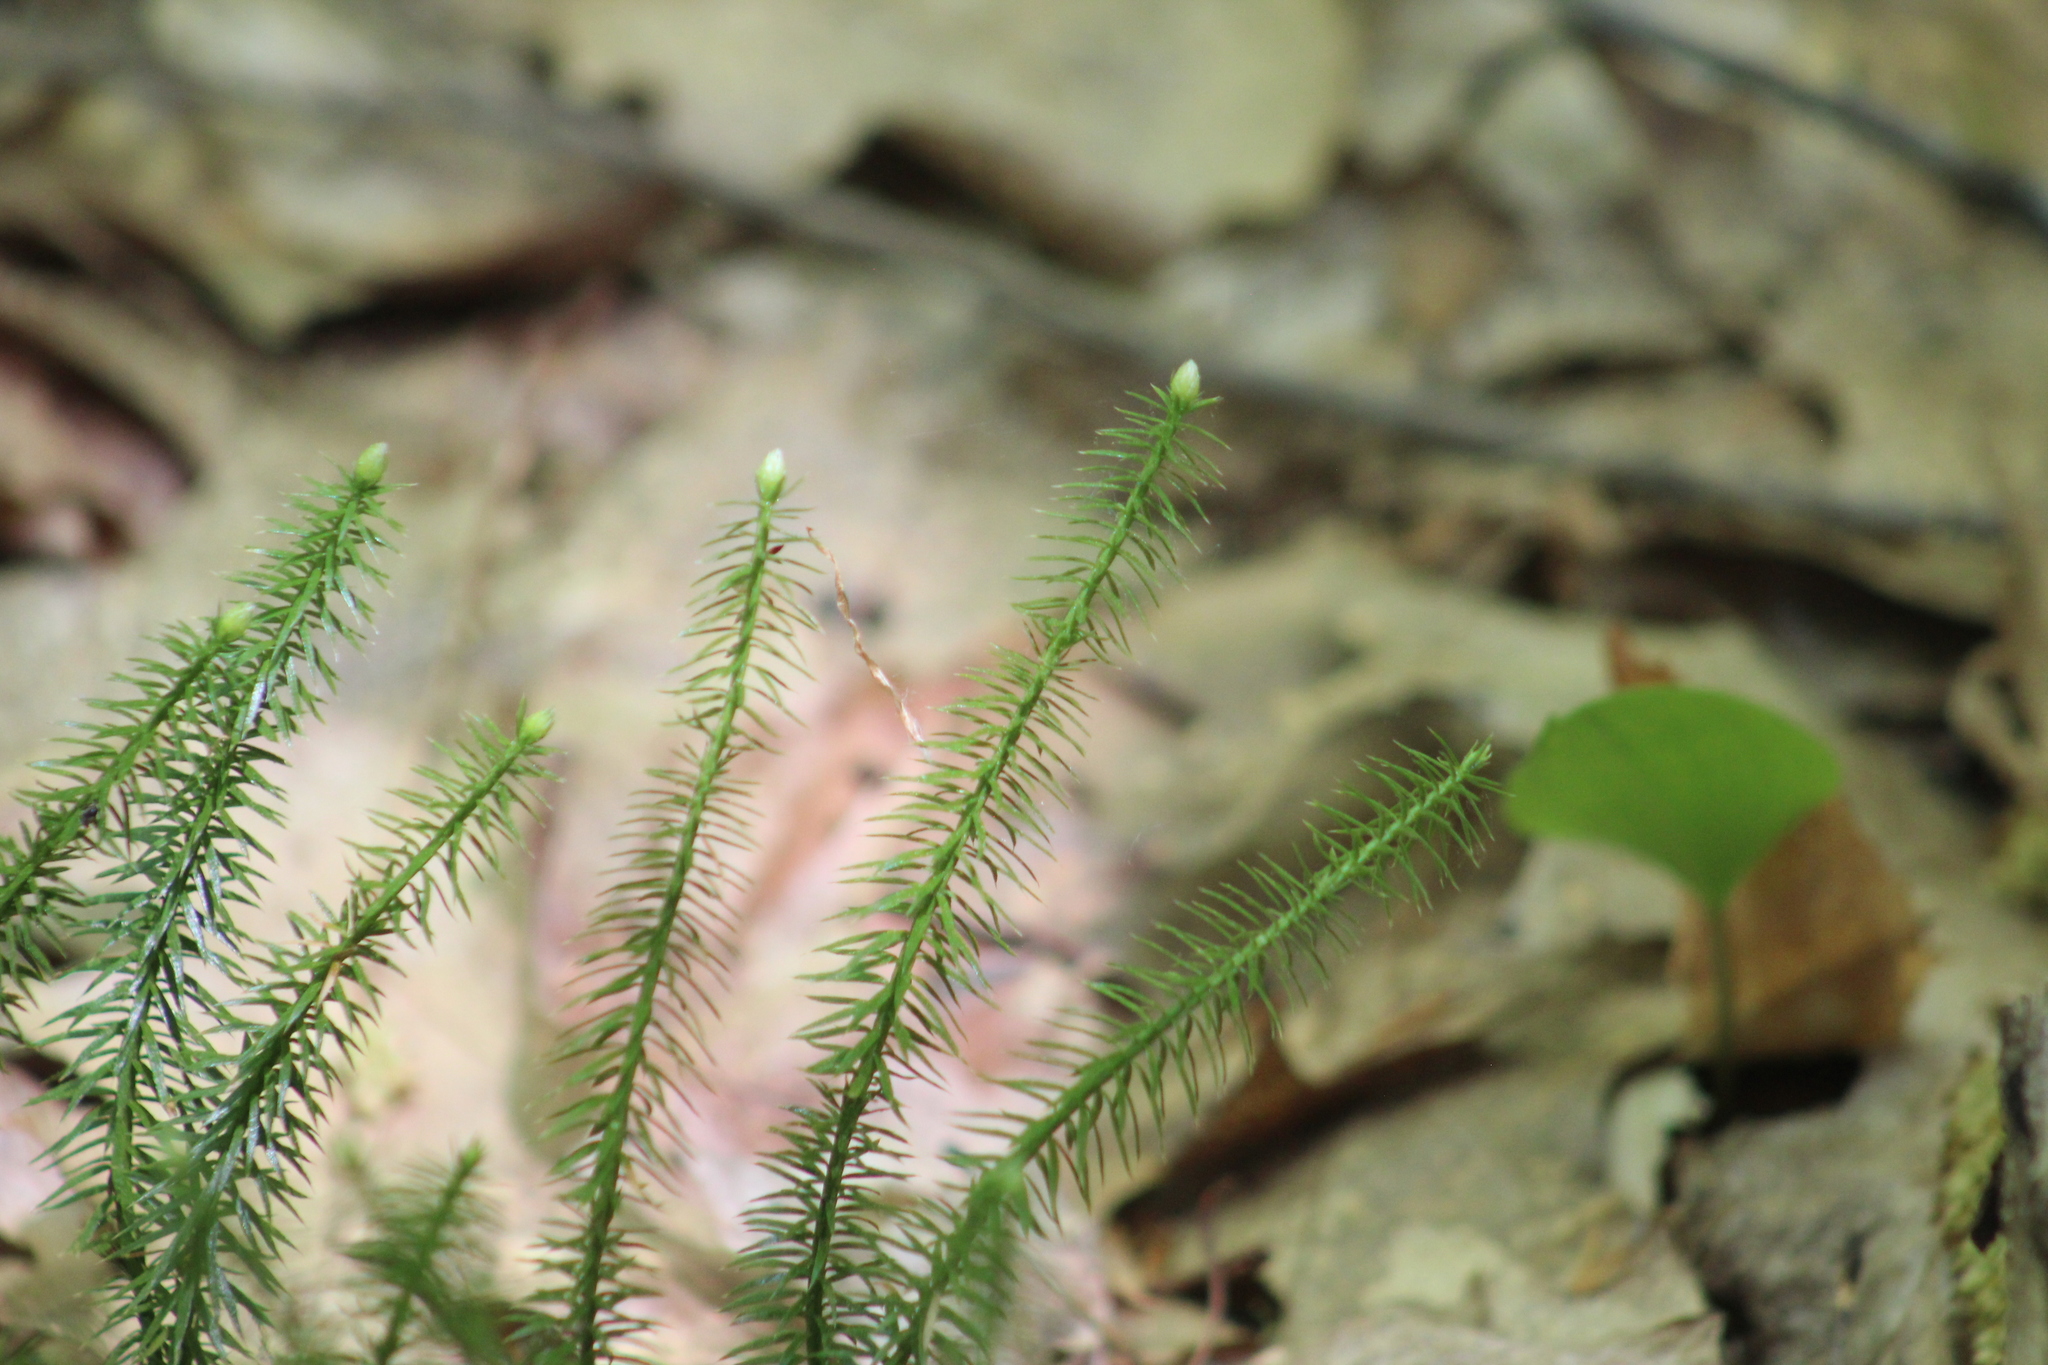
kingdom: Plantae
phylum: Tracheophyta
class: Lycopodiopsida
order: Lycopodiales
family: Lycopodiaceae
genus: Spinulum
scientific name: Spinulum annotinum
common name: Interrupted club-moss
